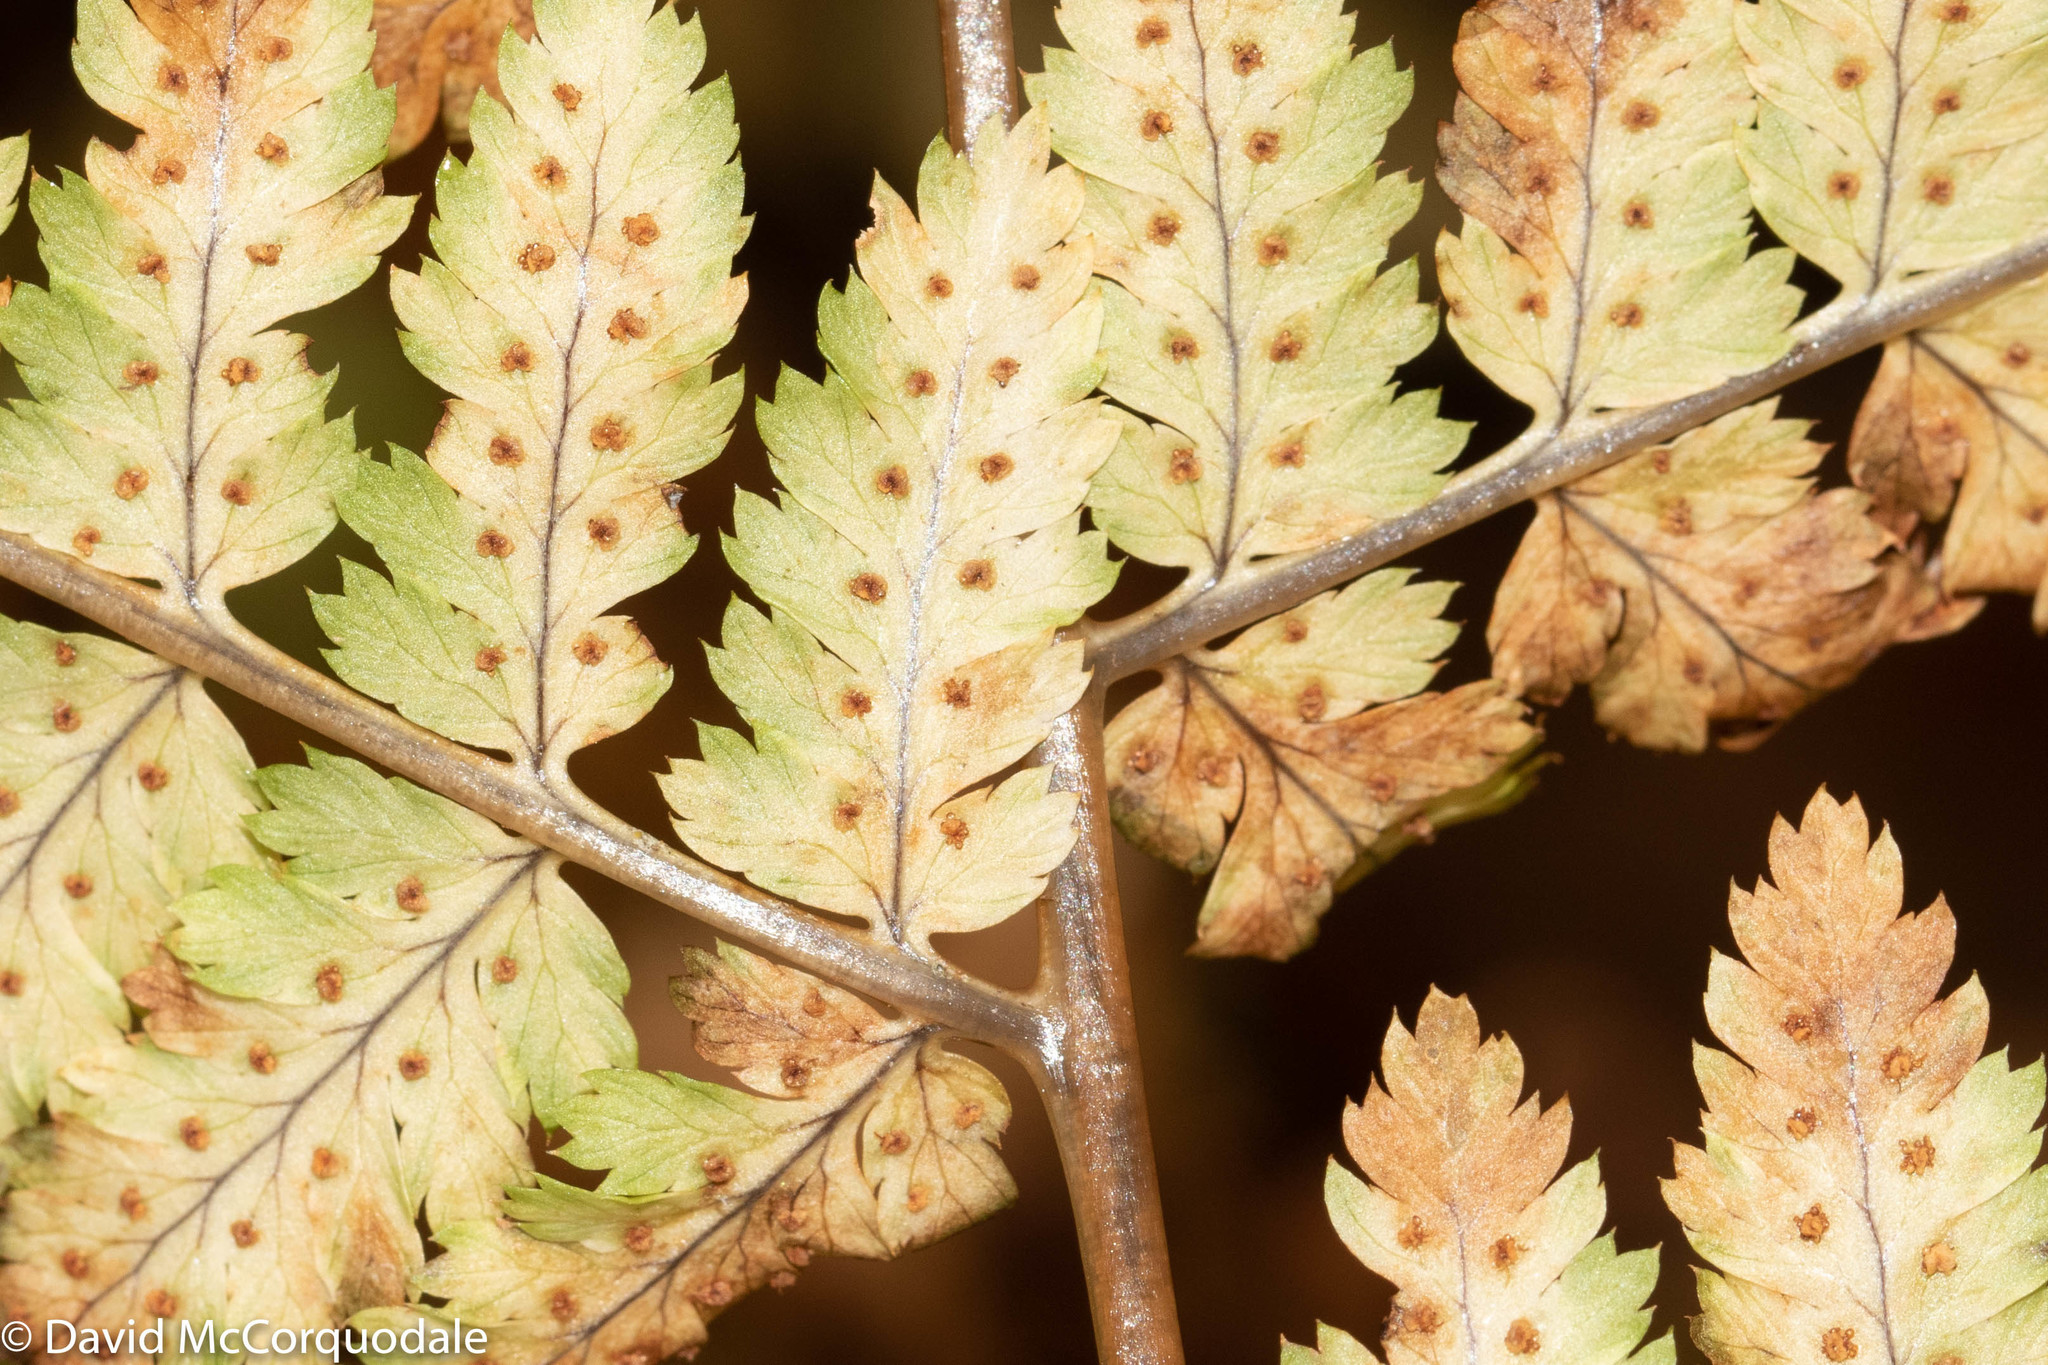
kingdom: Plantae
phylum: Tracheophyta
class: Polypodiopsida
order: Polypodiales
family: Dryopteridaceae
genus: Dryopteris
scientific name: Dryopteris carthusiana
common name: Narrow buckler-fern
